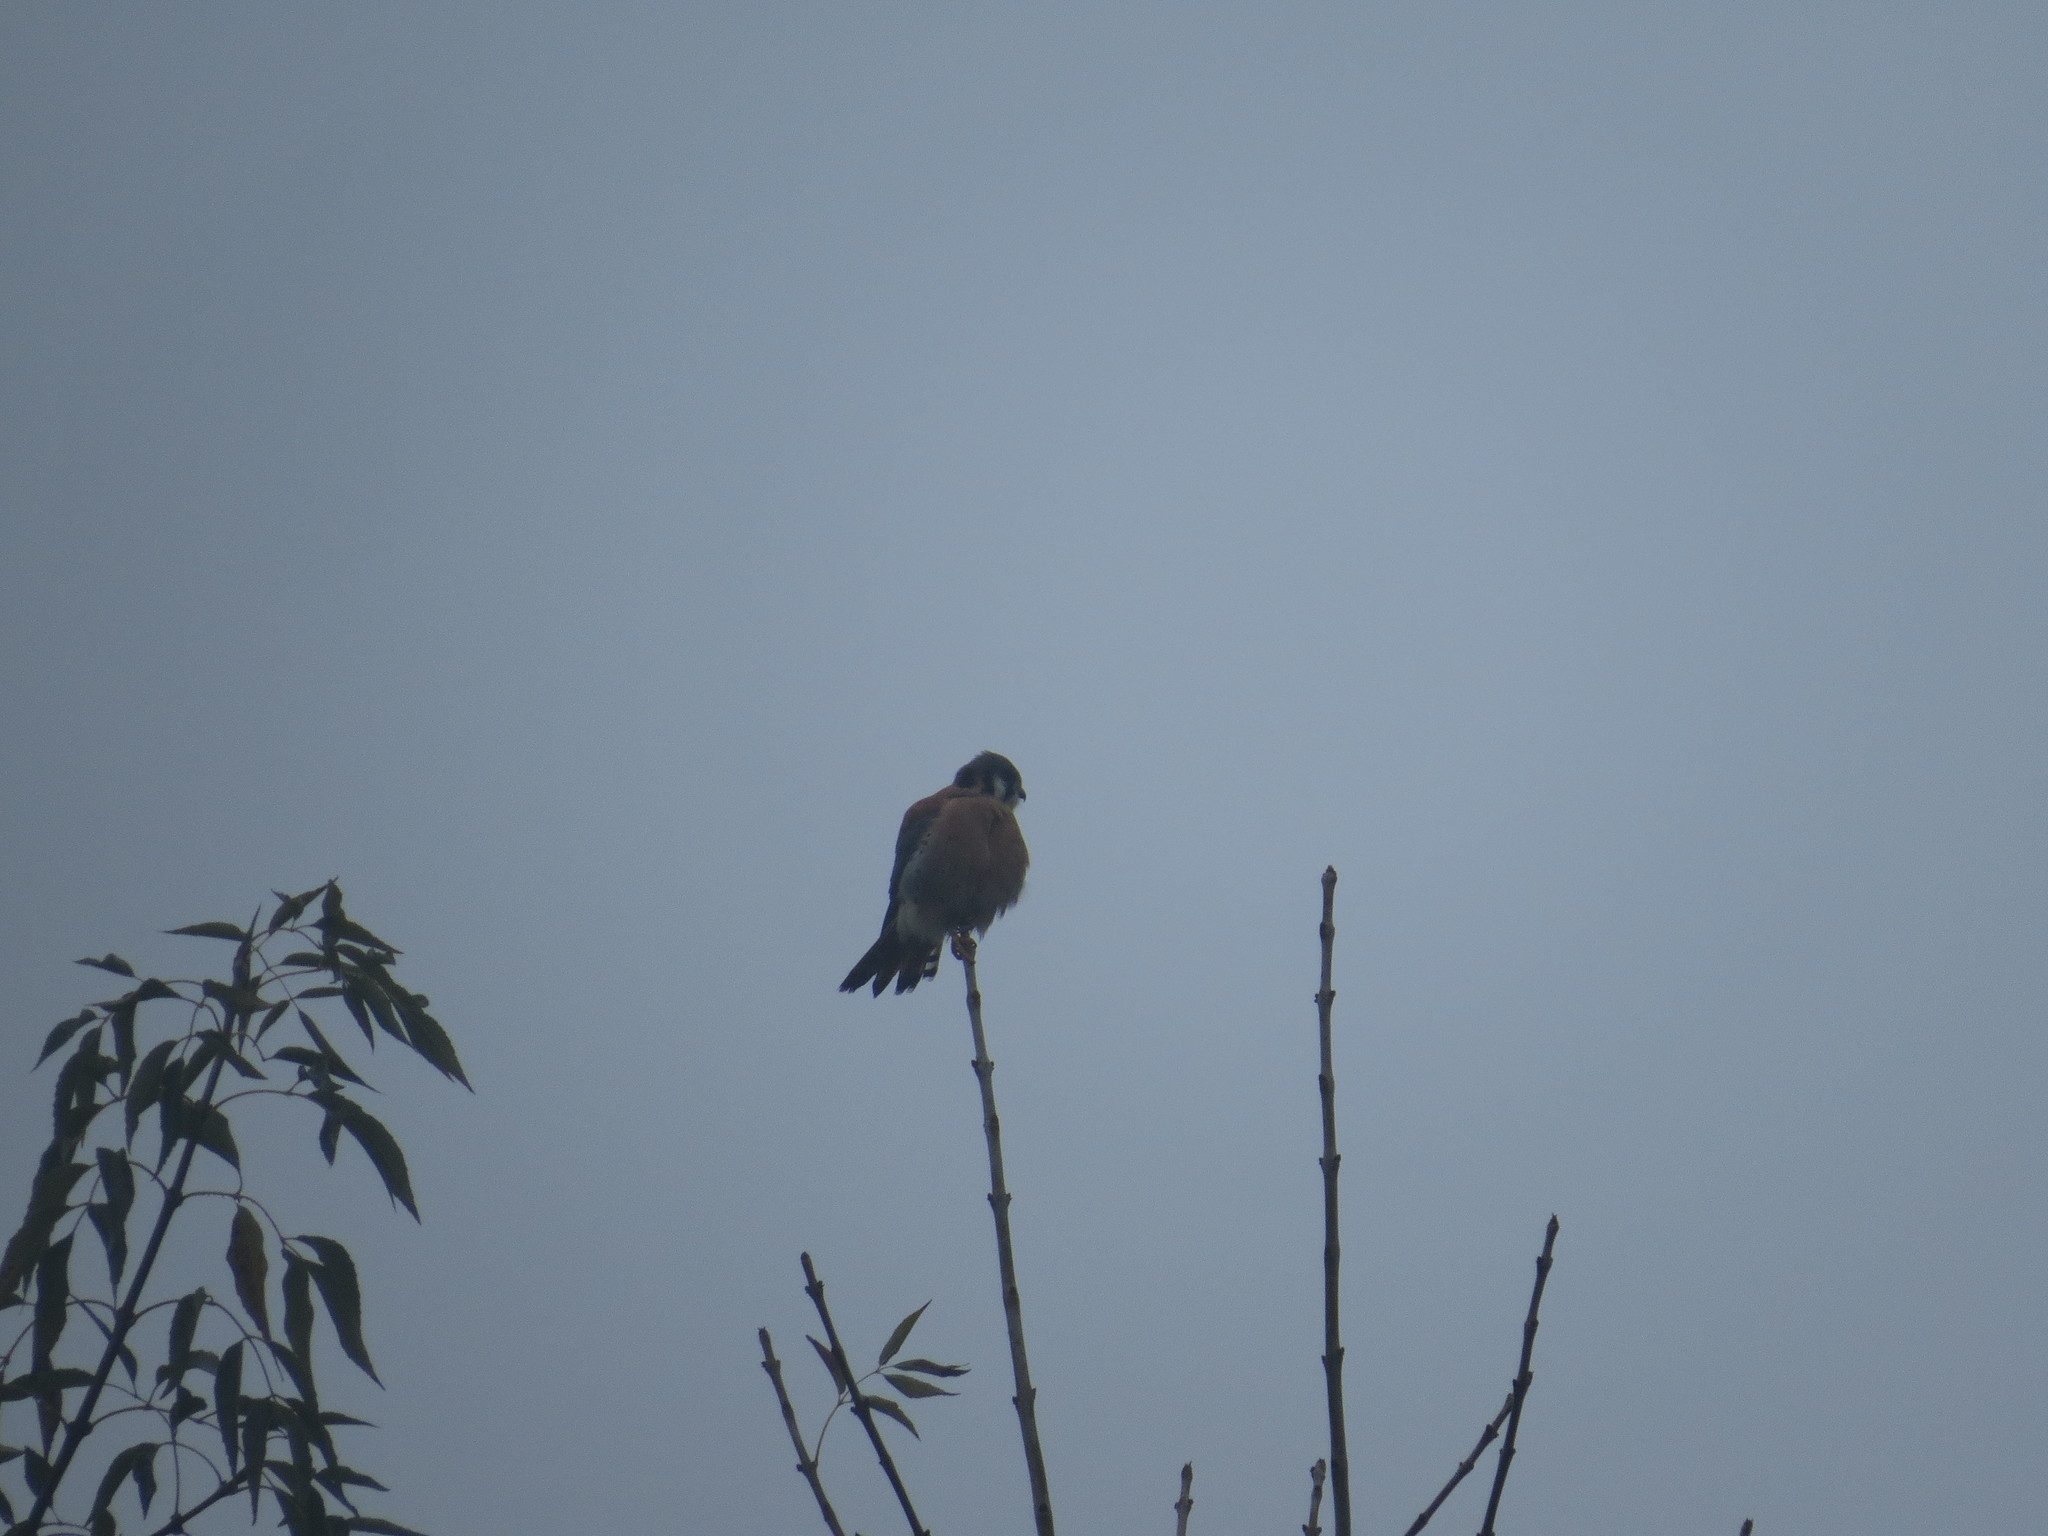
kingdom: Animalia
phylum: Chordata
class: Aves
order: Falconiformes
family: Falconidae
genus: Falco
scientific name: Falco sparverius
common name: American kestrel
